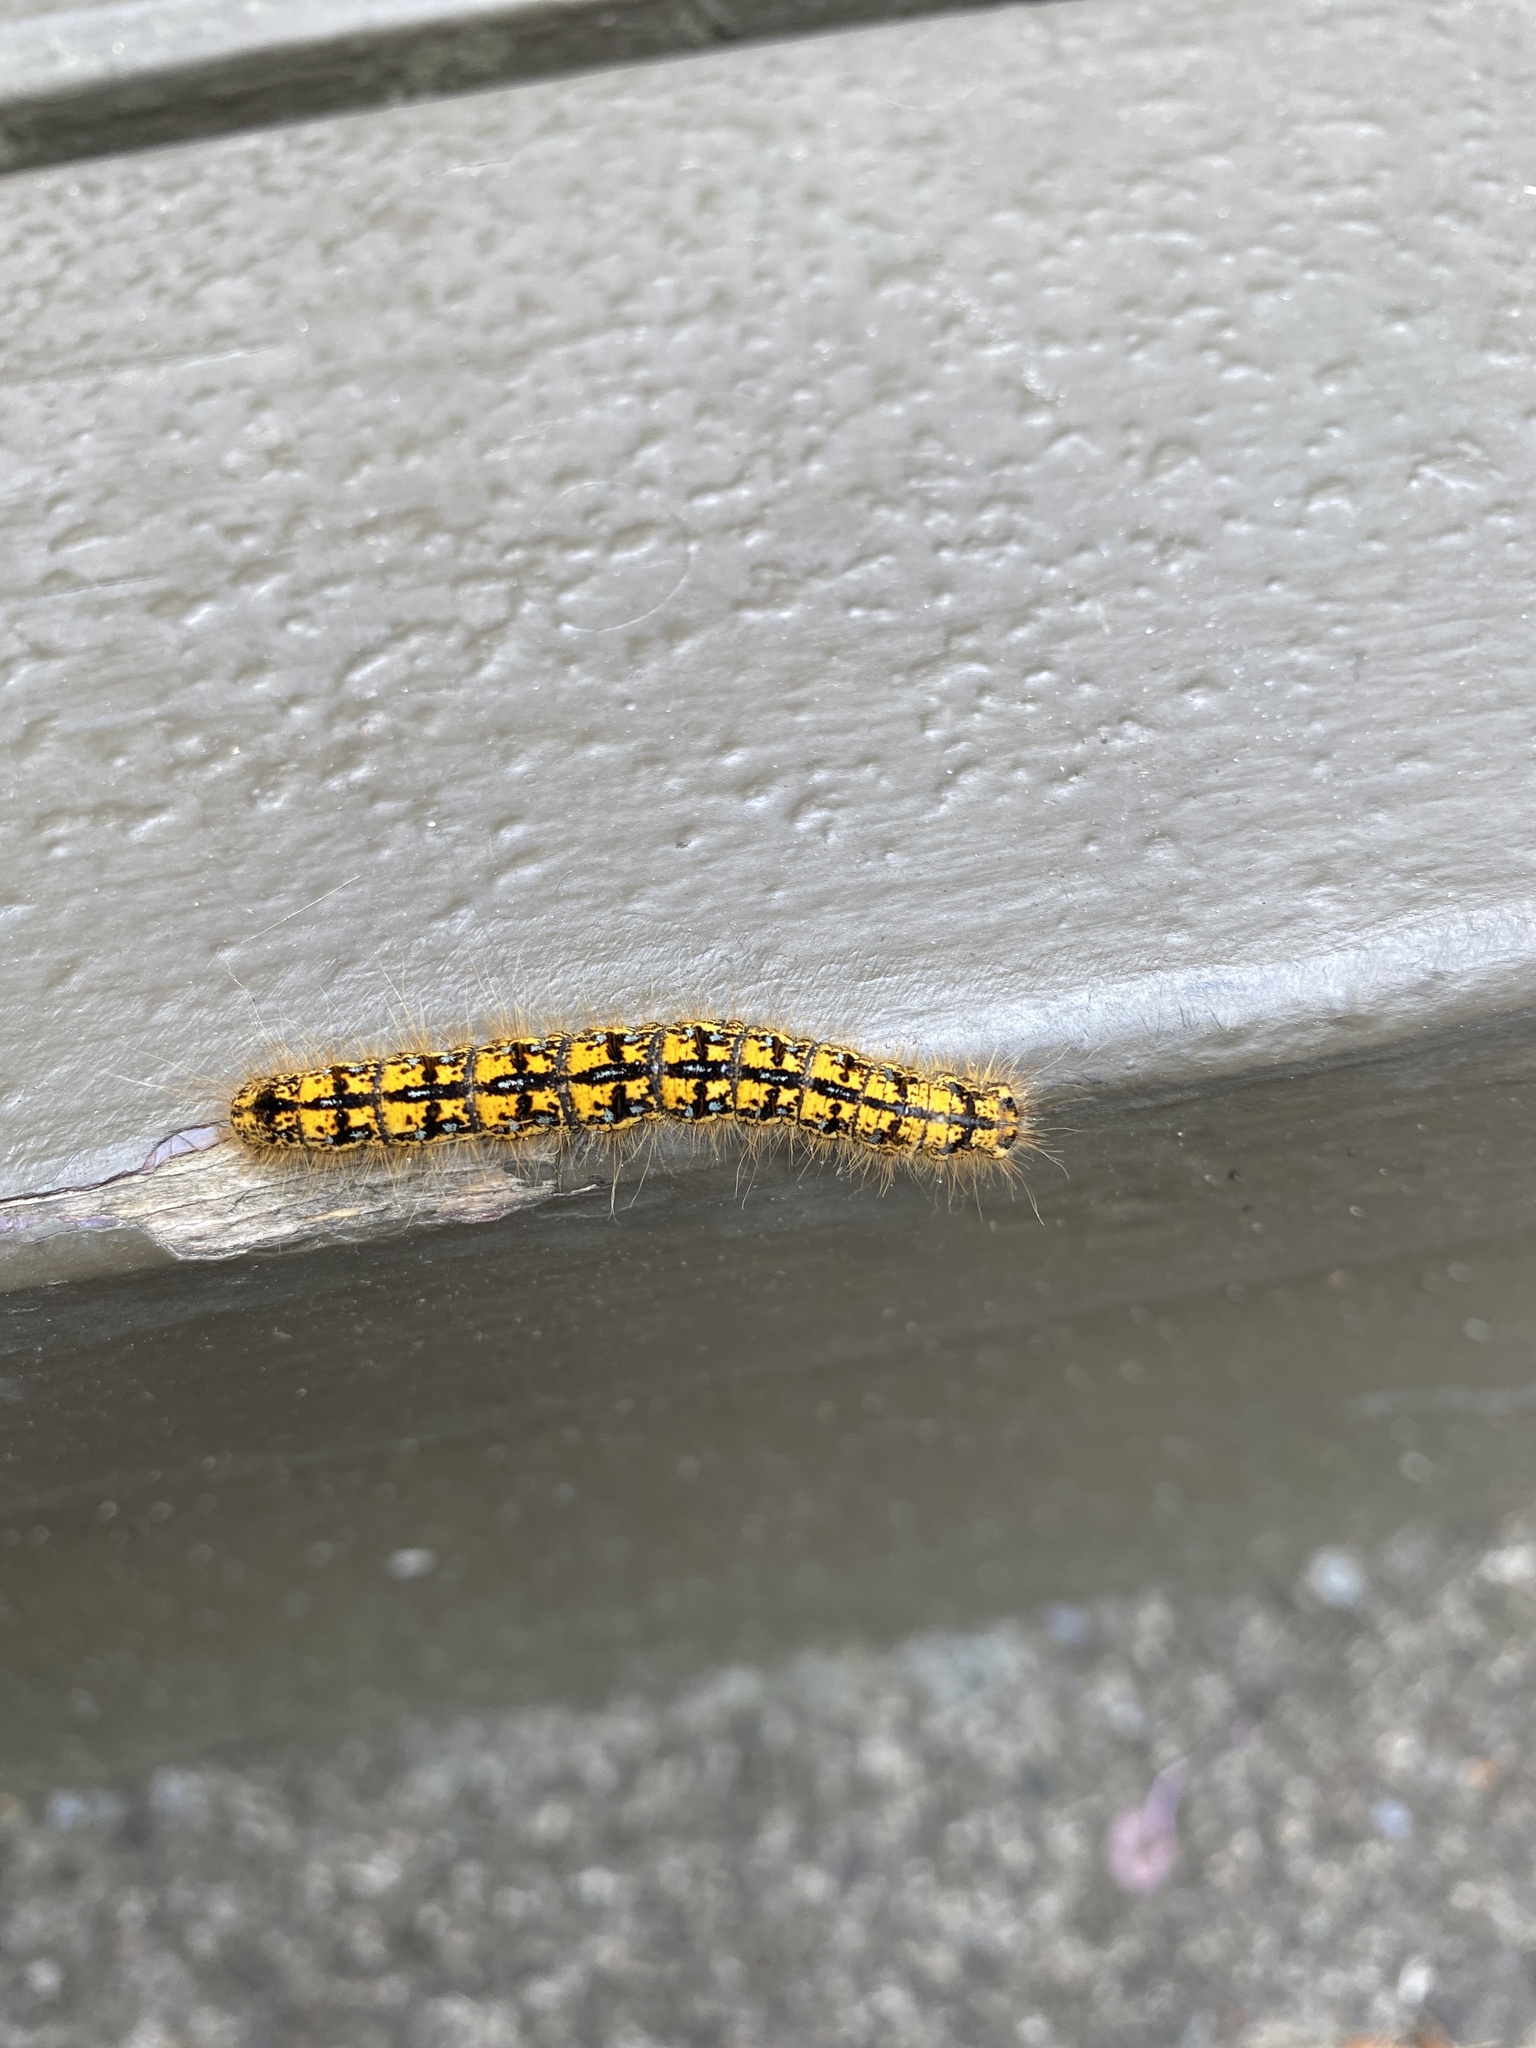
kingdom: Animalia
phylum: Arthropoda
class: Insecta
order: Lepidoptera
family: Lasiocampidae
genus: Malacosoma
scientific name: Malacosoma californica
